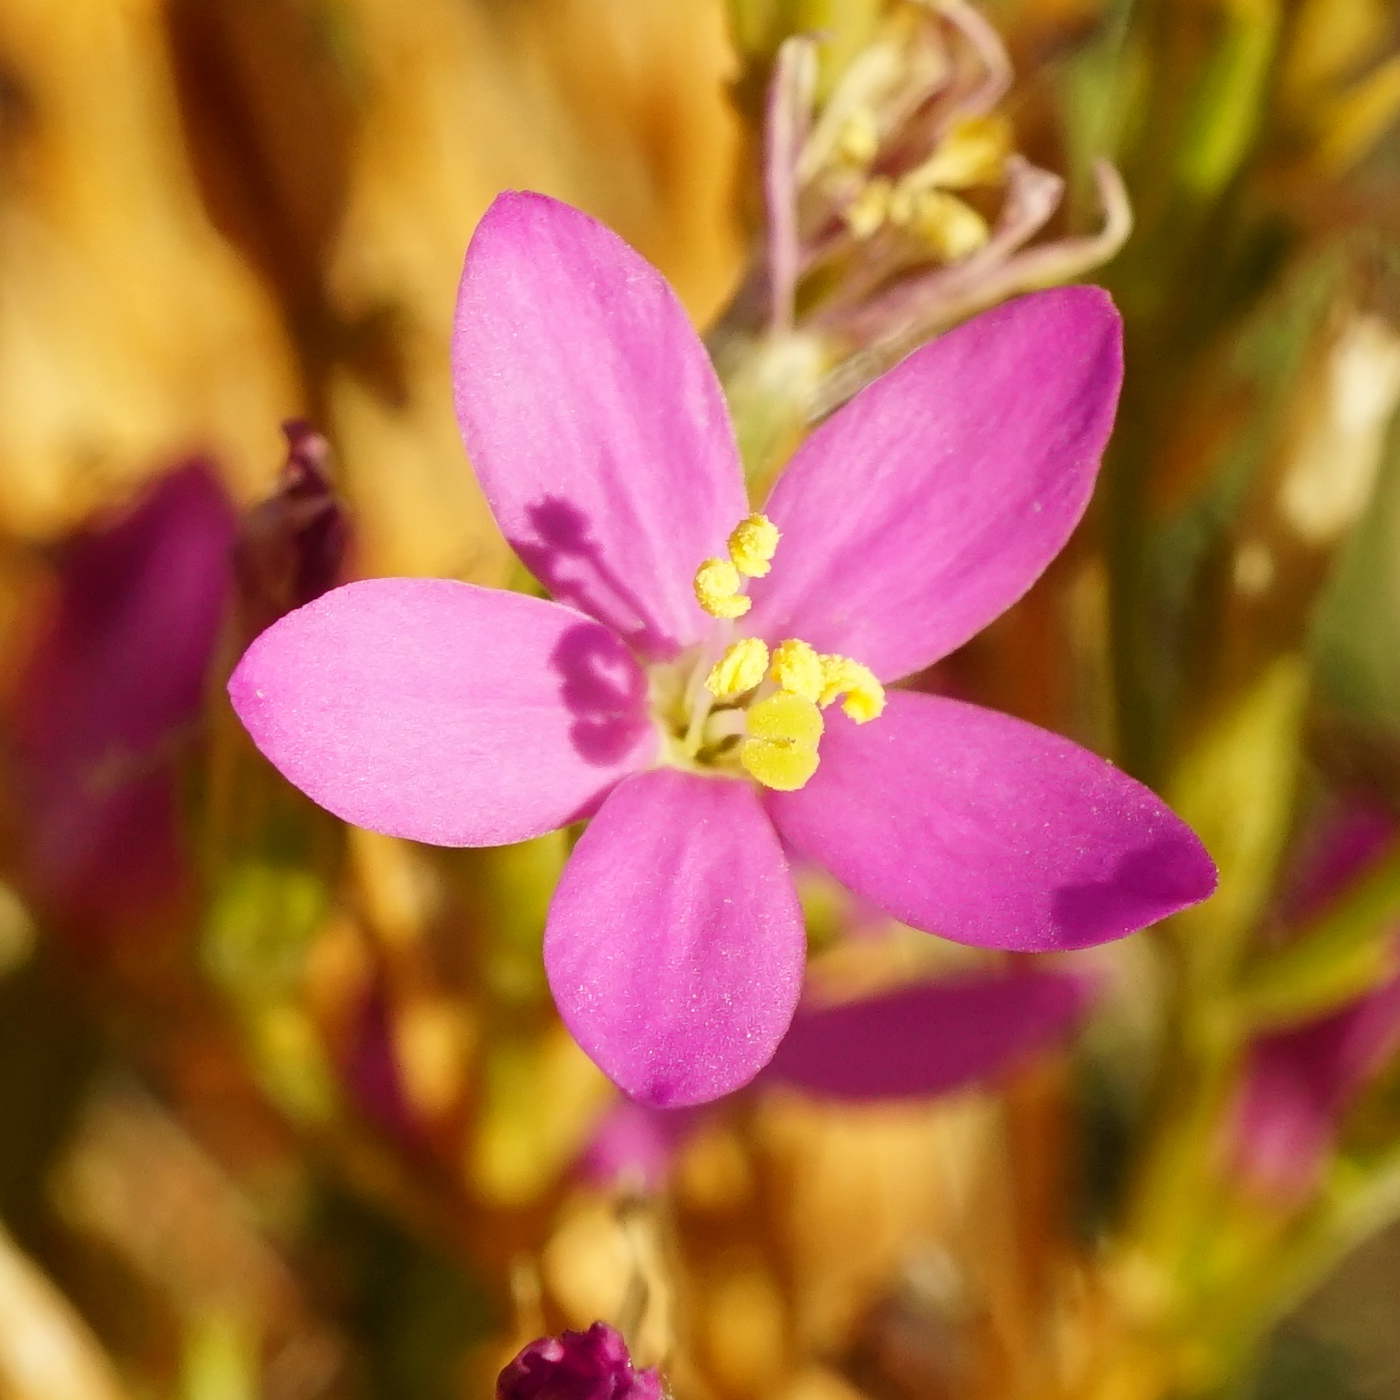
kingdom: Plantae
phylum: Tracheophyta
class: Magnoliopsida
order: Gentianales
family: Gentianaceae
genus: Centaurium
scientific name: Centaurium littorale
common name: Seaside centaury
